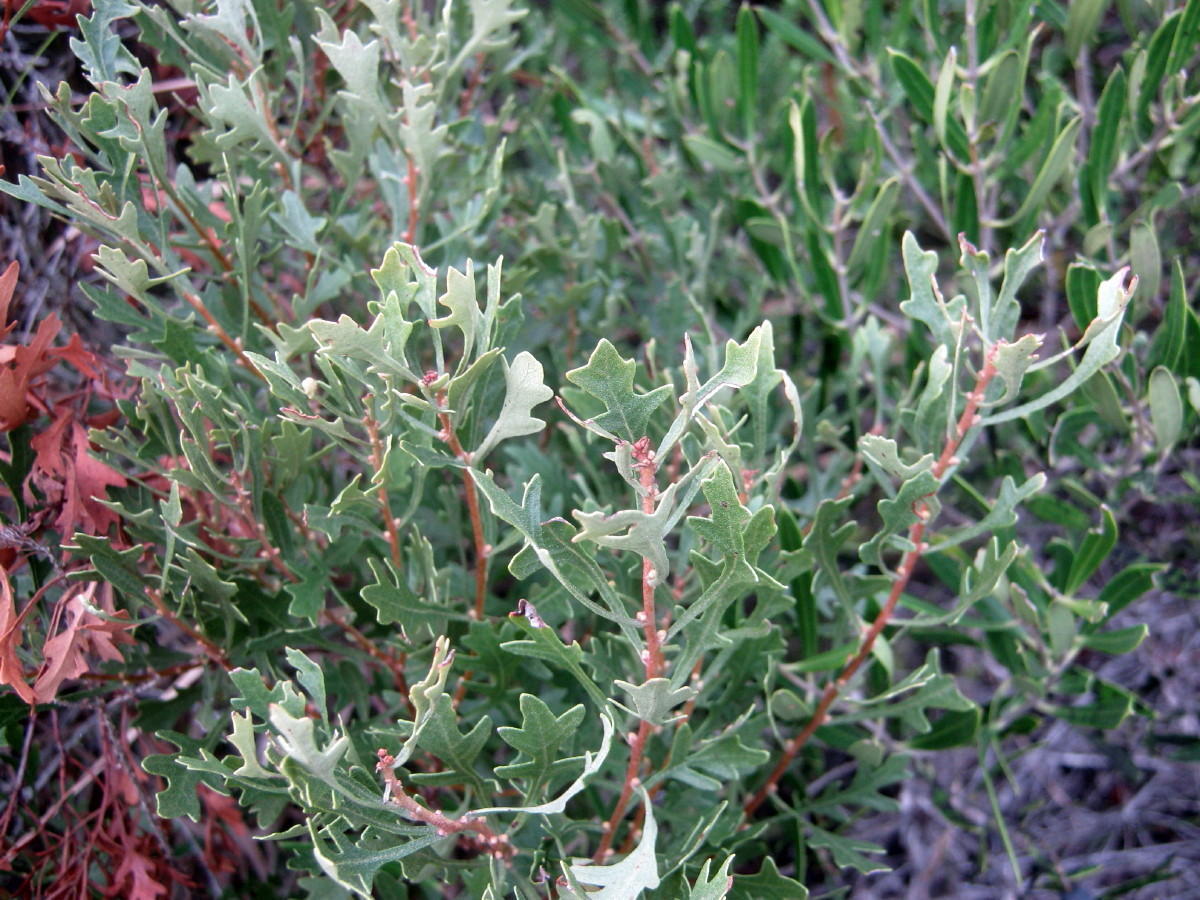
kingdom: Plantae
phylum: Tracheophyta
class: Magnoliopsida
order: Fagales
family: Myricaceae
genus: Morella
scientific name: Morella quercifolia
